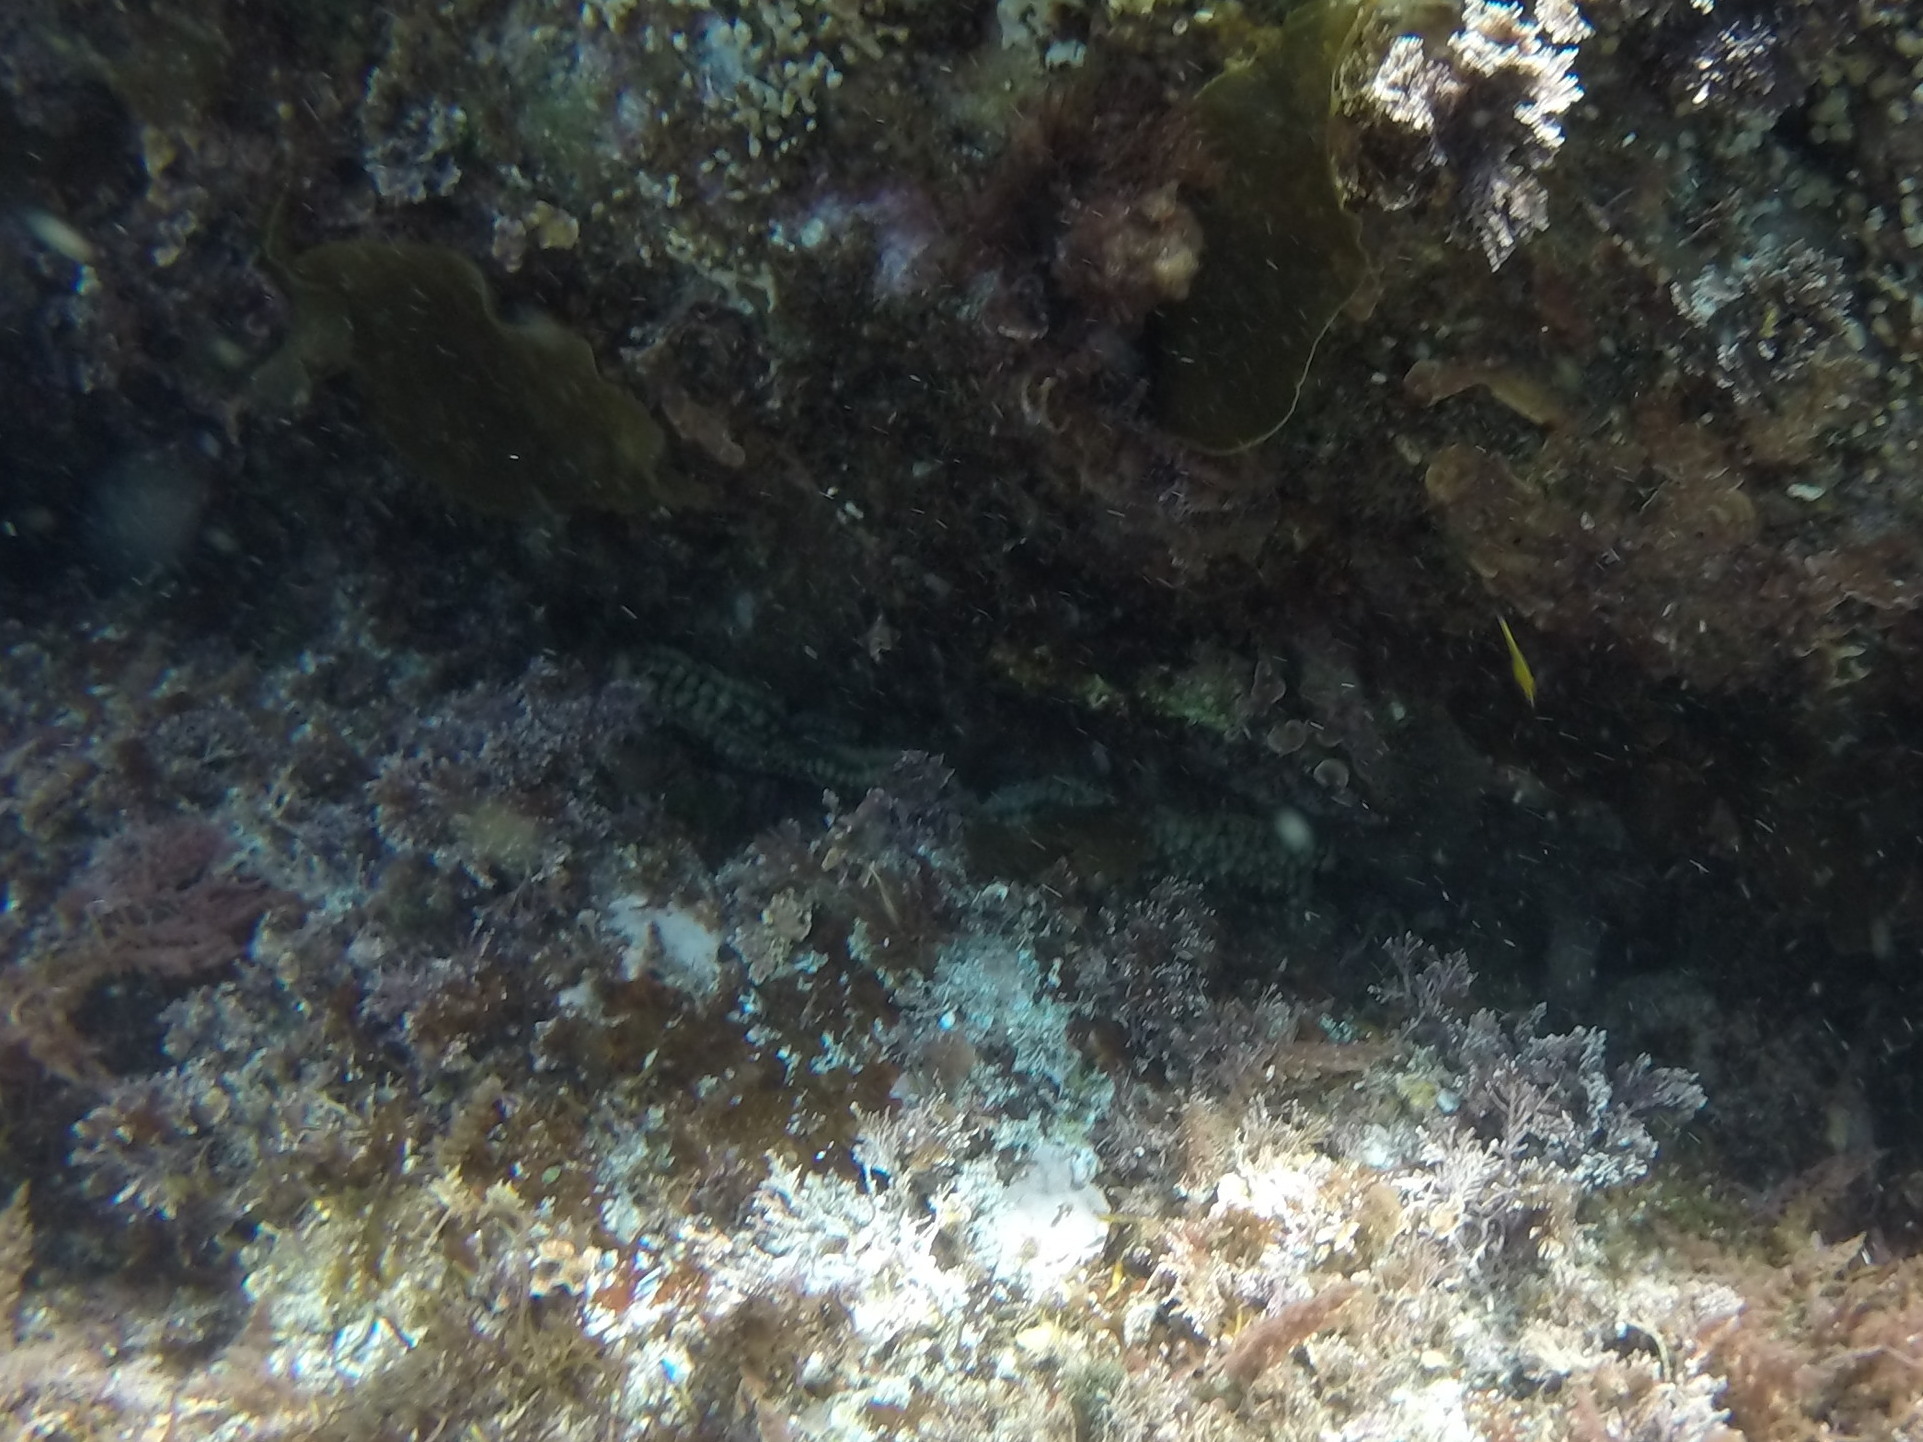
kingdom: Animalia
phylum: Echinodermata
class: Asteroidea
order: Forcipulatida
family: Asteriidae
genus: Marthasterias
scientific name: Marthasterias glacialis
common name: Spiny starfish
